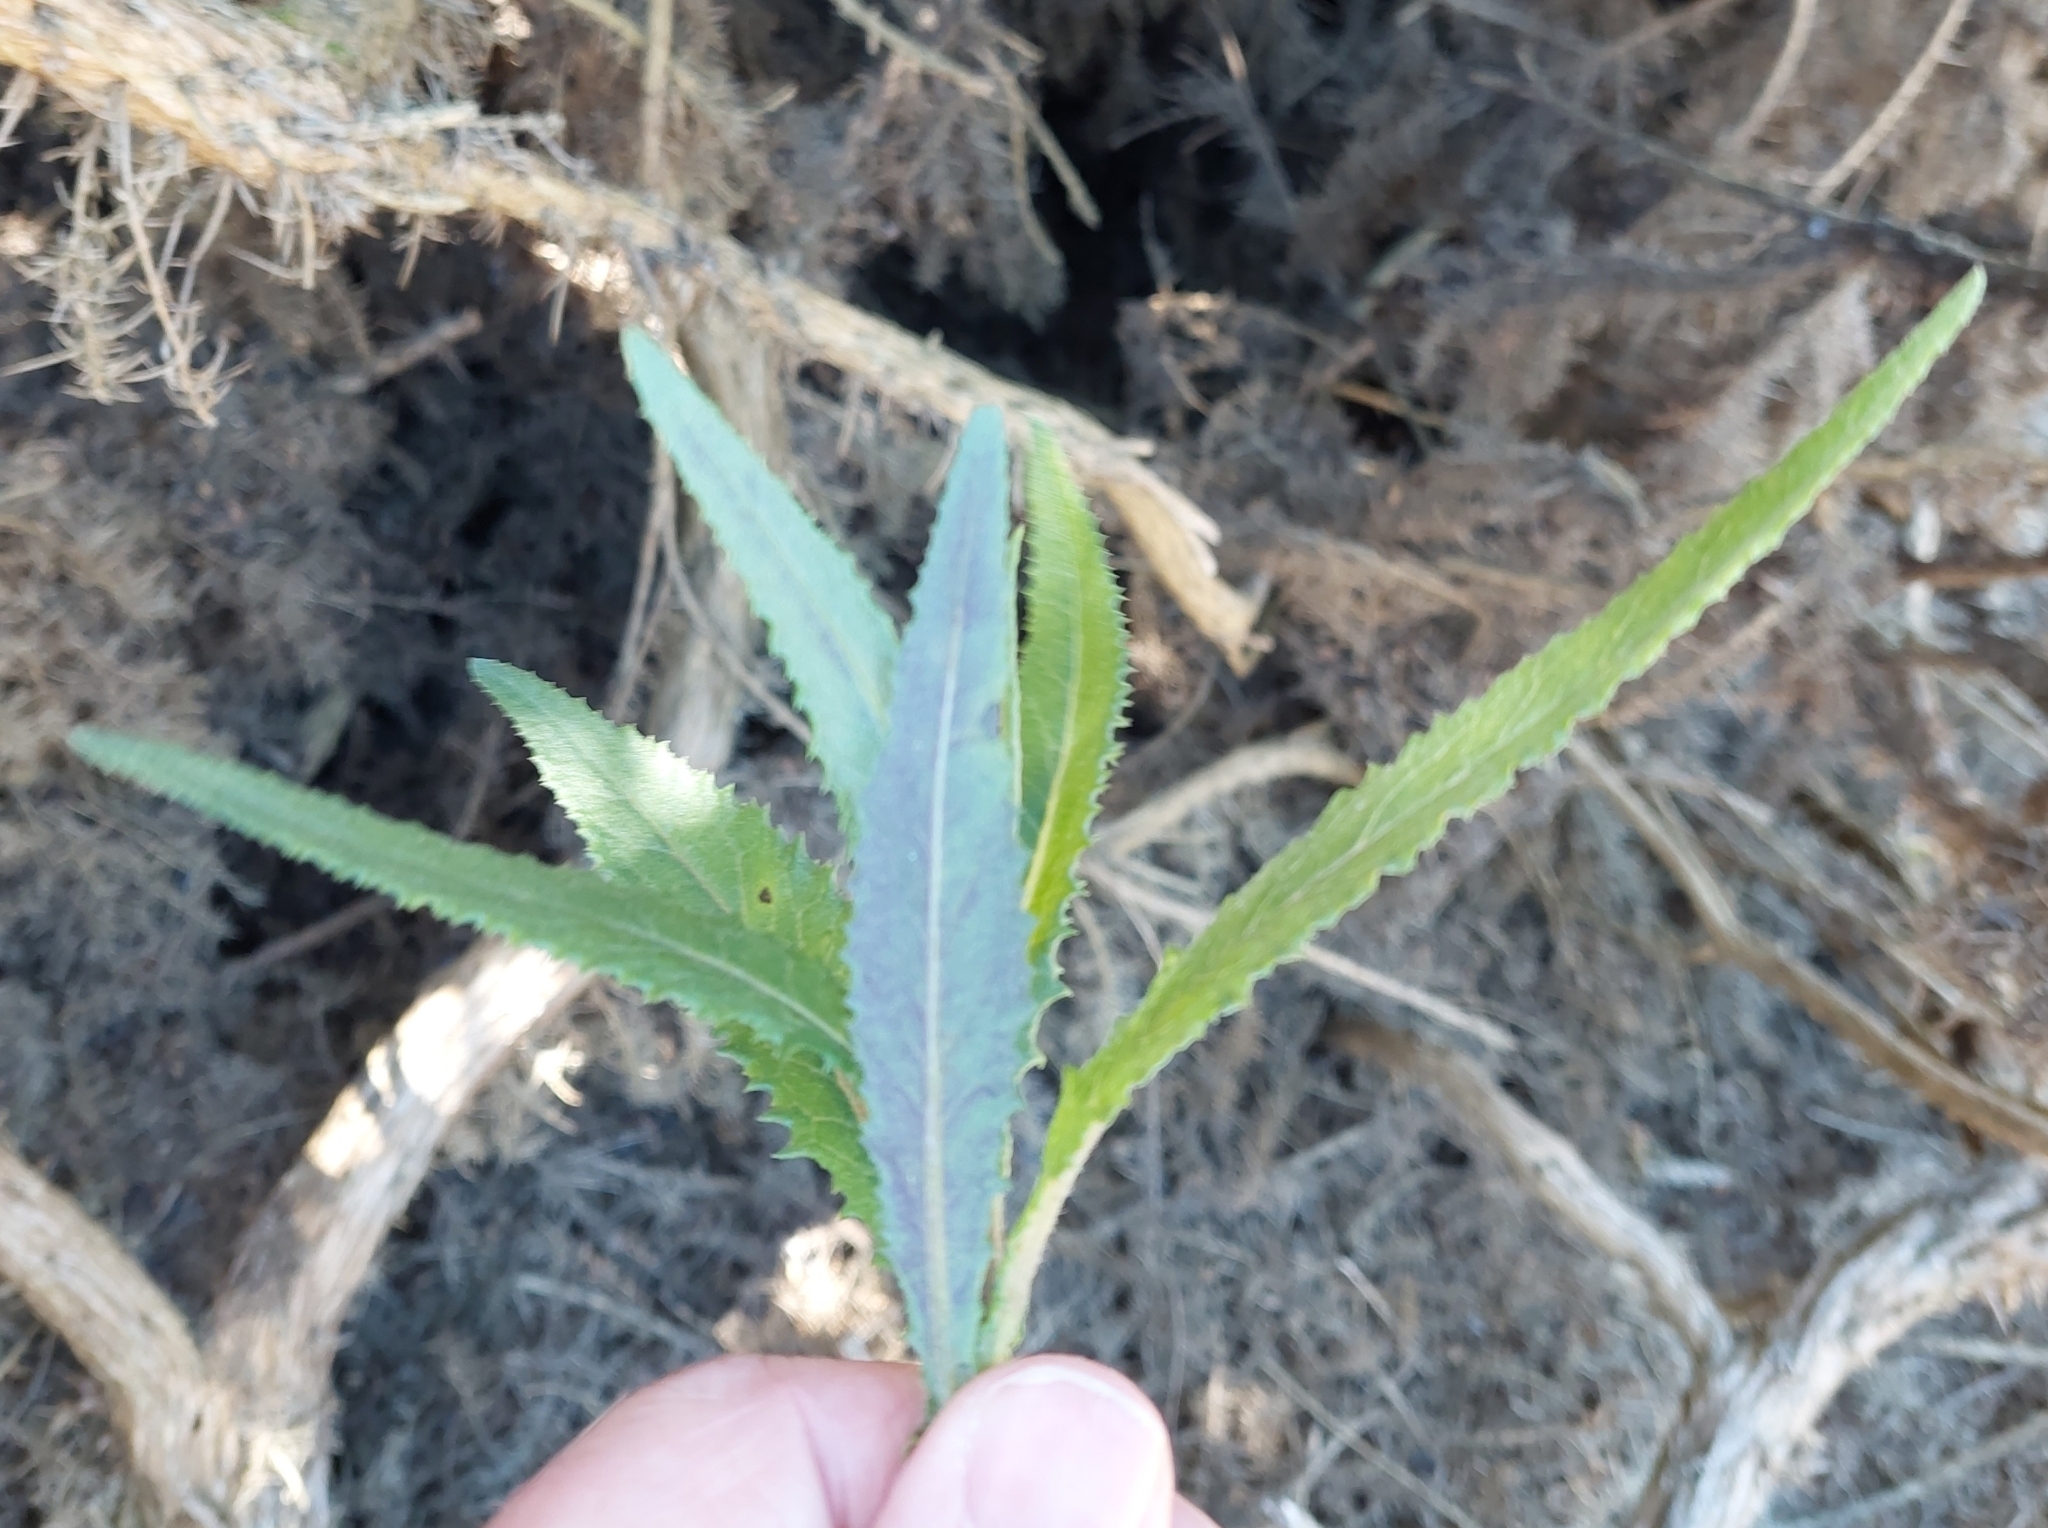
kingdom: Plantae
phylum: Tracheophyta
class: Magnoliopsida
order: Asterales
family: Asteraceae
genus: Senecio
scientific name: Senecio minimus
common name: Toothed fireweed
